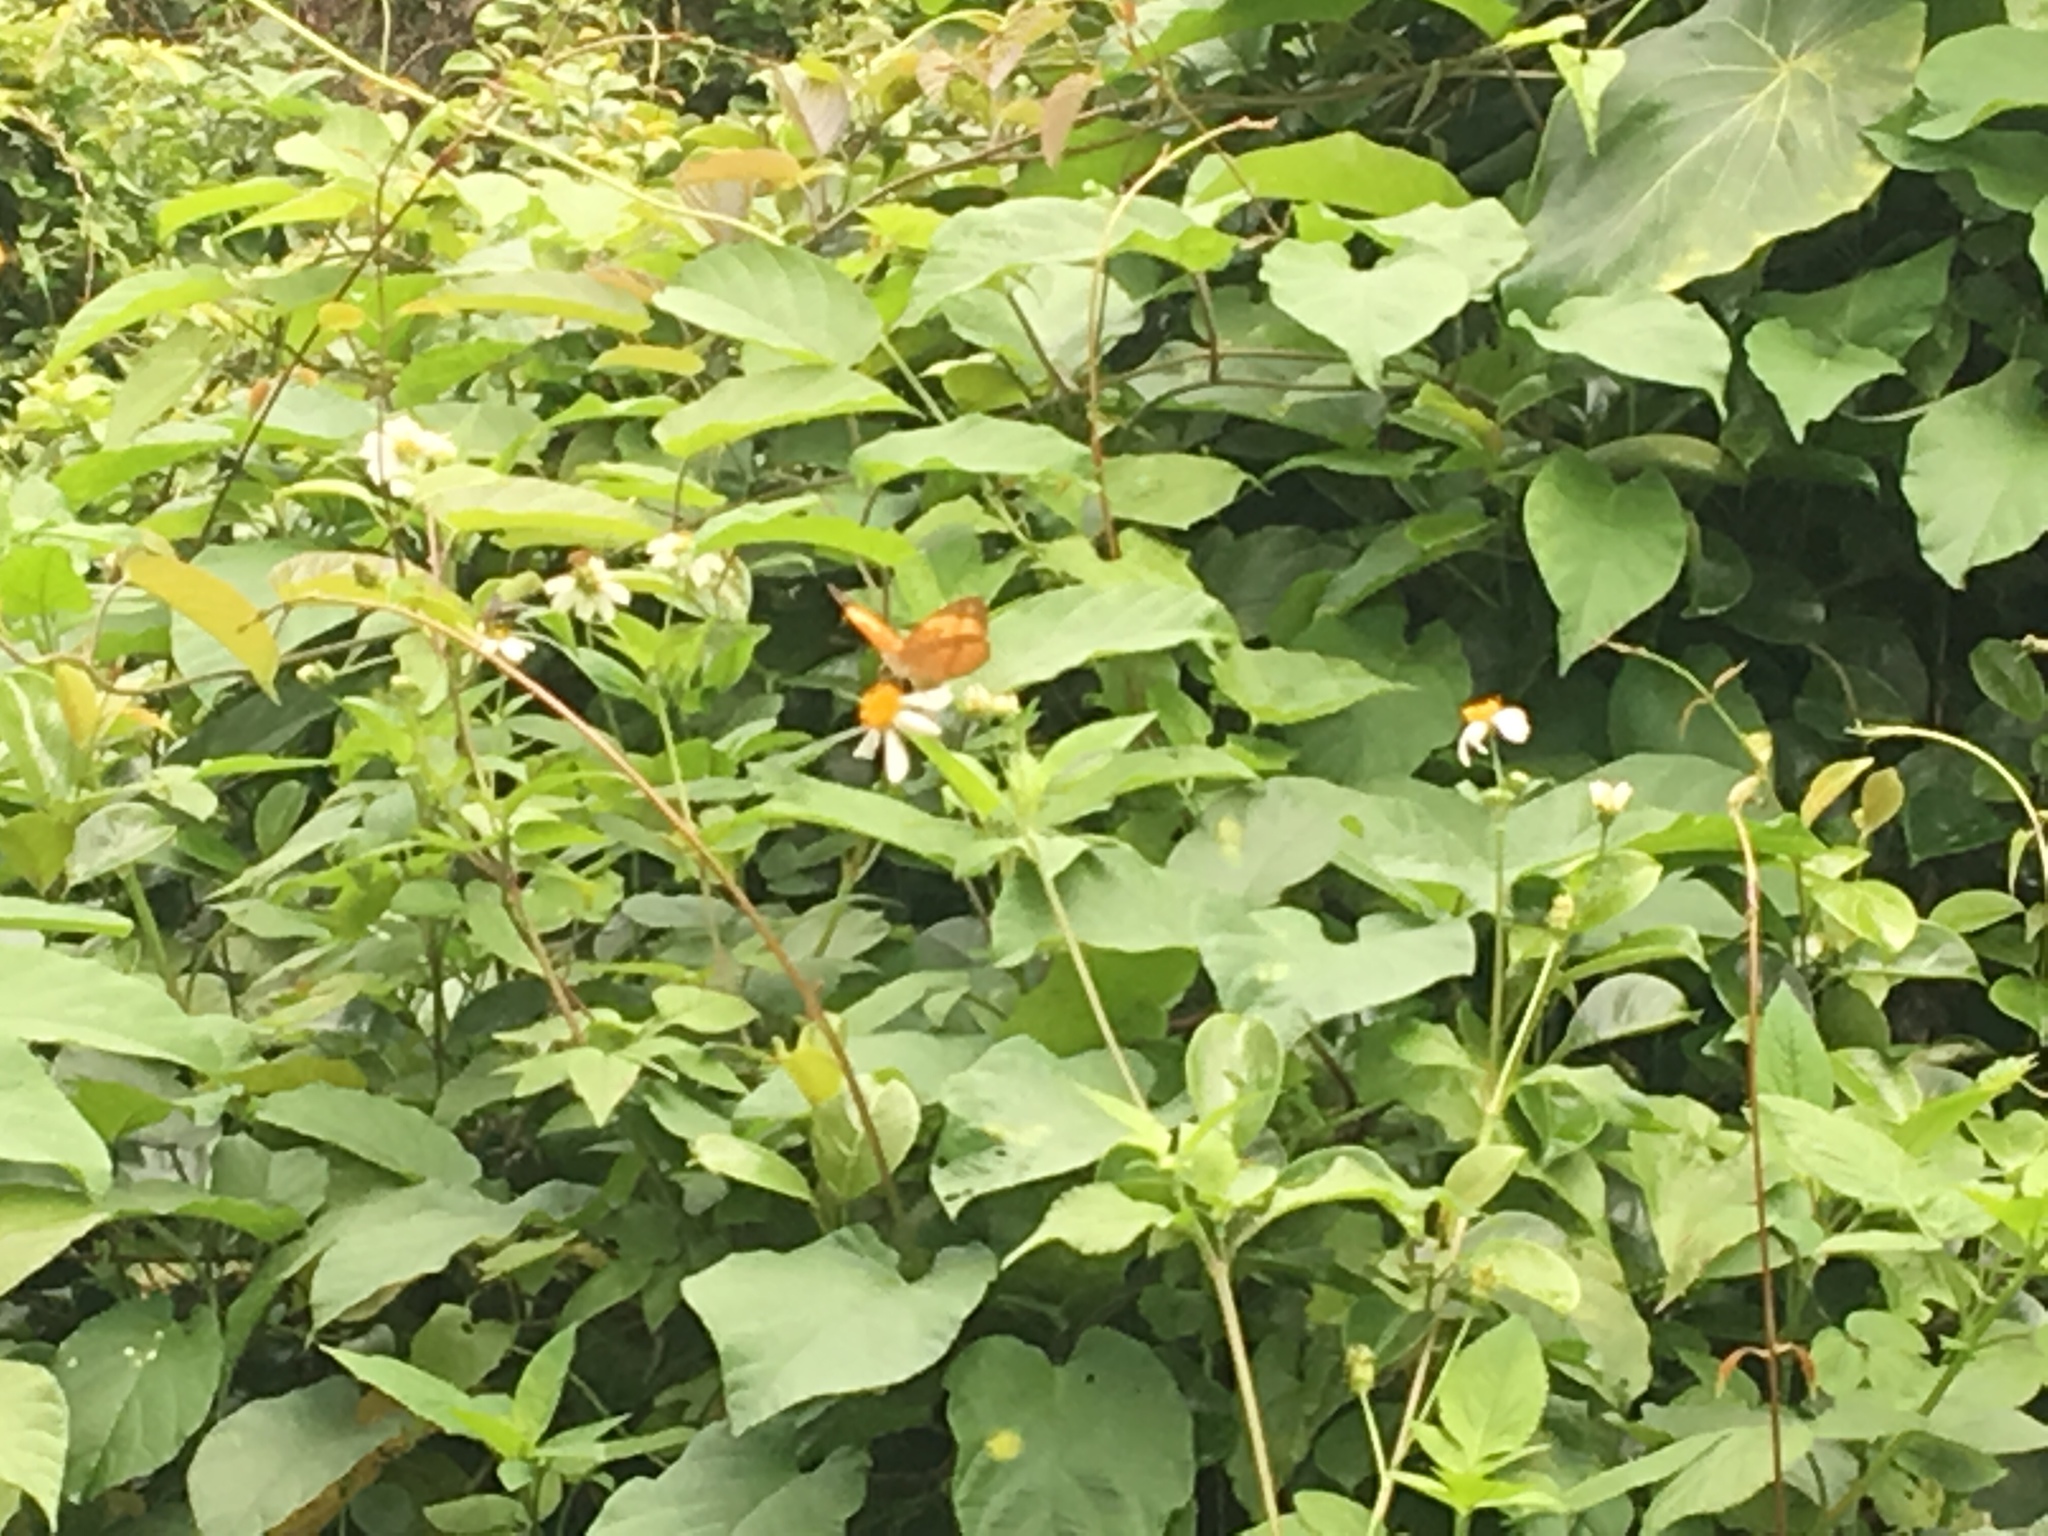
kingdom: Animalia
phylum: Arthropoda
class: Insecta
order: Lepidoptera
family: Nymphalidae
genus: Cupha
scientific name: Cupha erymanthis
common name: Rustic
